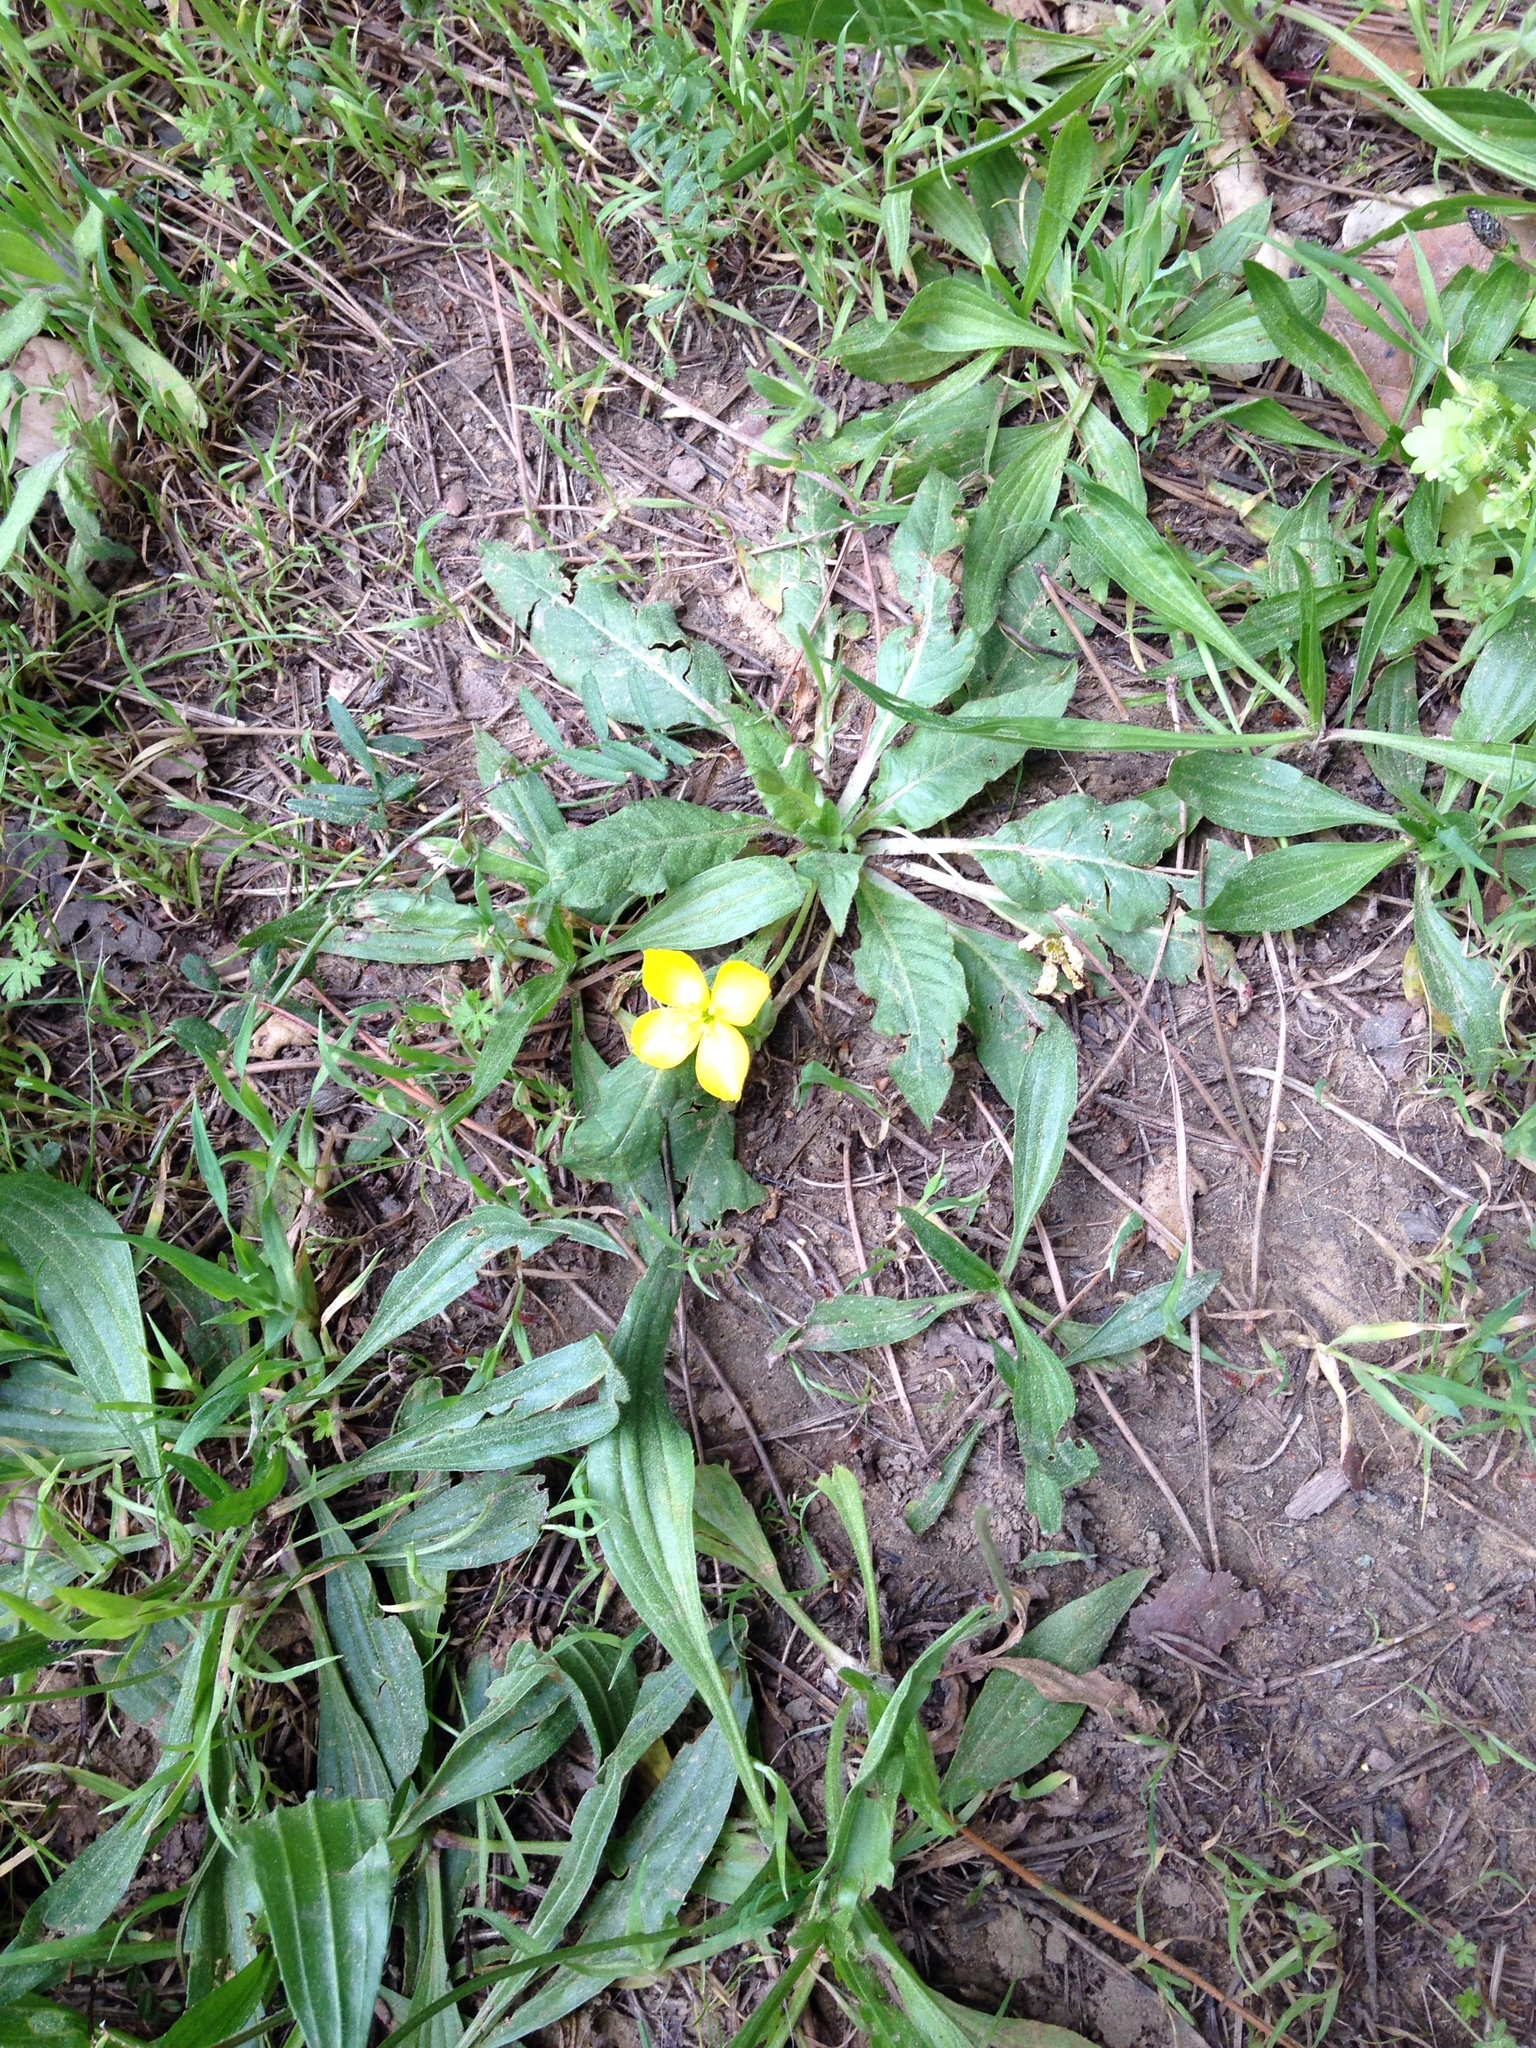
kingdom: Plantae
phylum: Tracheophyta
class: Magnoliopsida
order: Myrtales
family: Onagraceae
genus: Taraxia
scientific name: Taraxia ovata
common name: Goldeneggs
